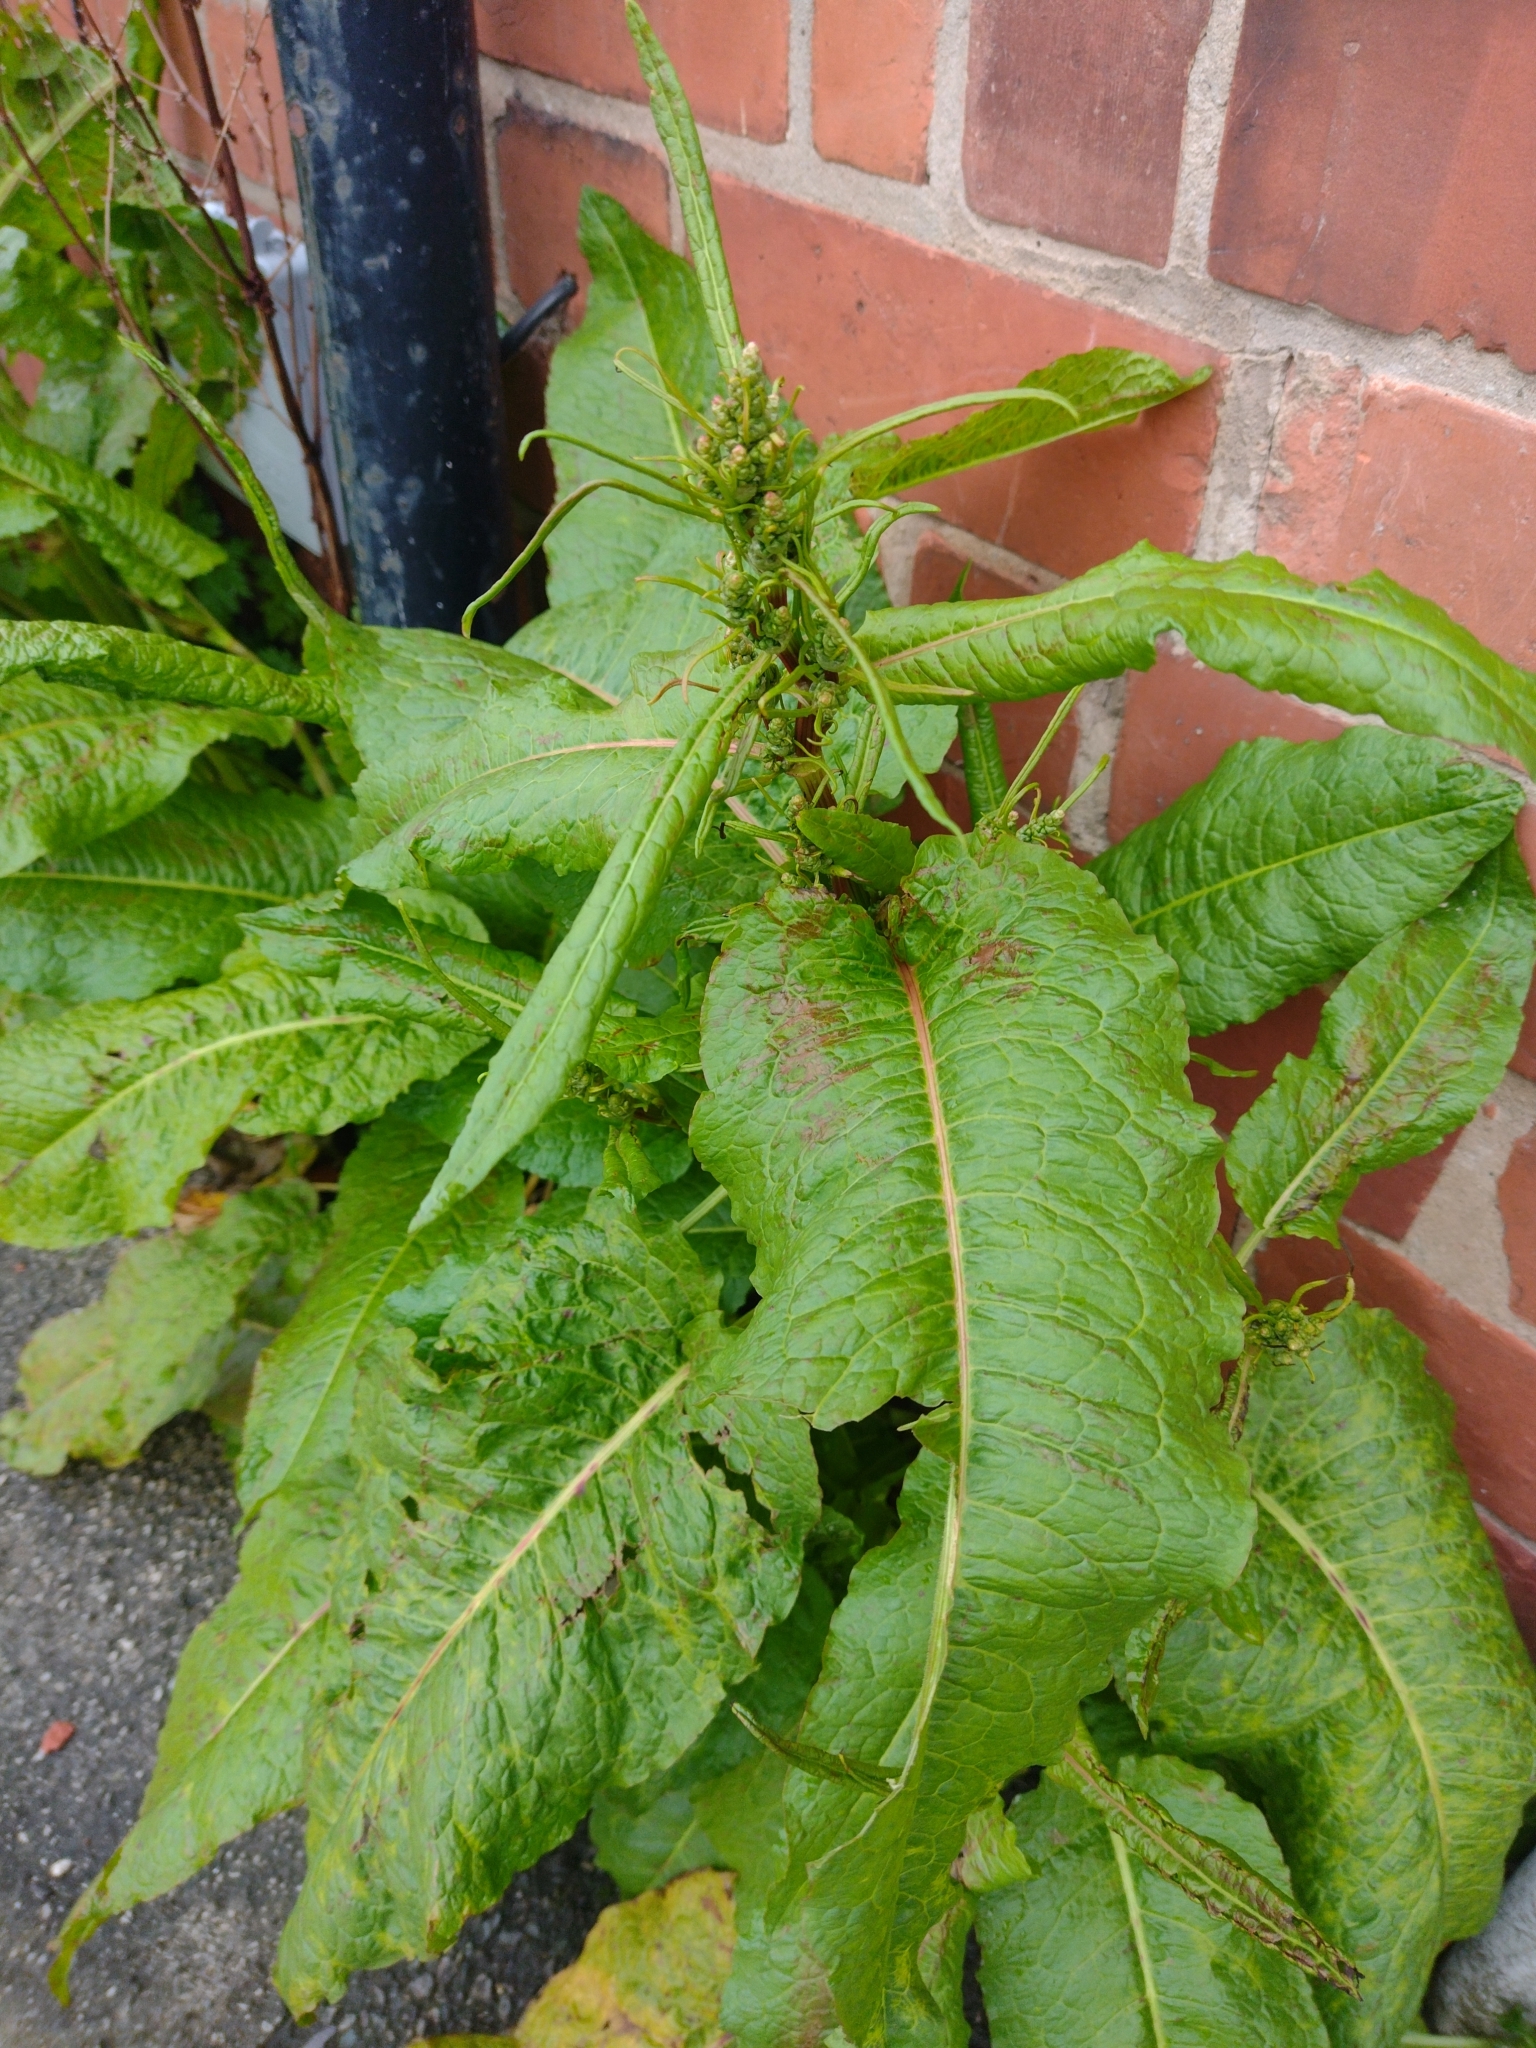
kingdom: Plantae
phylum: Tracheophyta
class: Magnoliopsida
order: Caryophyllales
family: Polygonaceae
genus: Rumex
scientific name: Rumex obtusifolius
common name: Bitter dock
